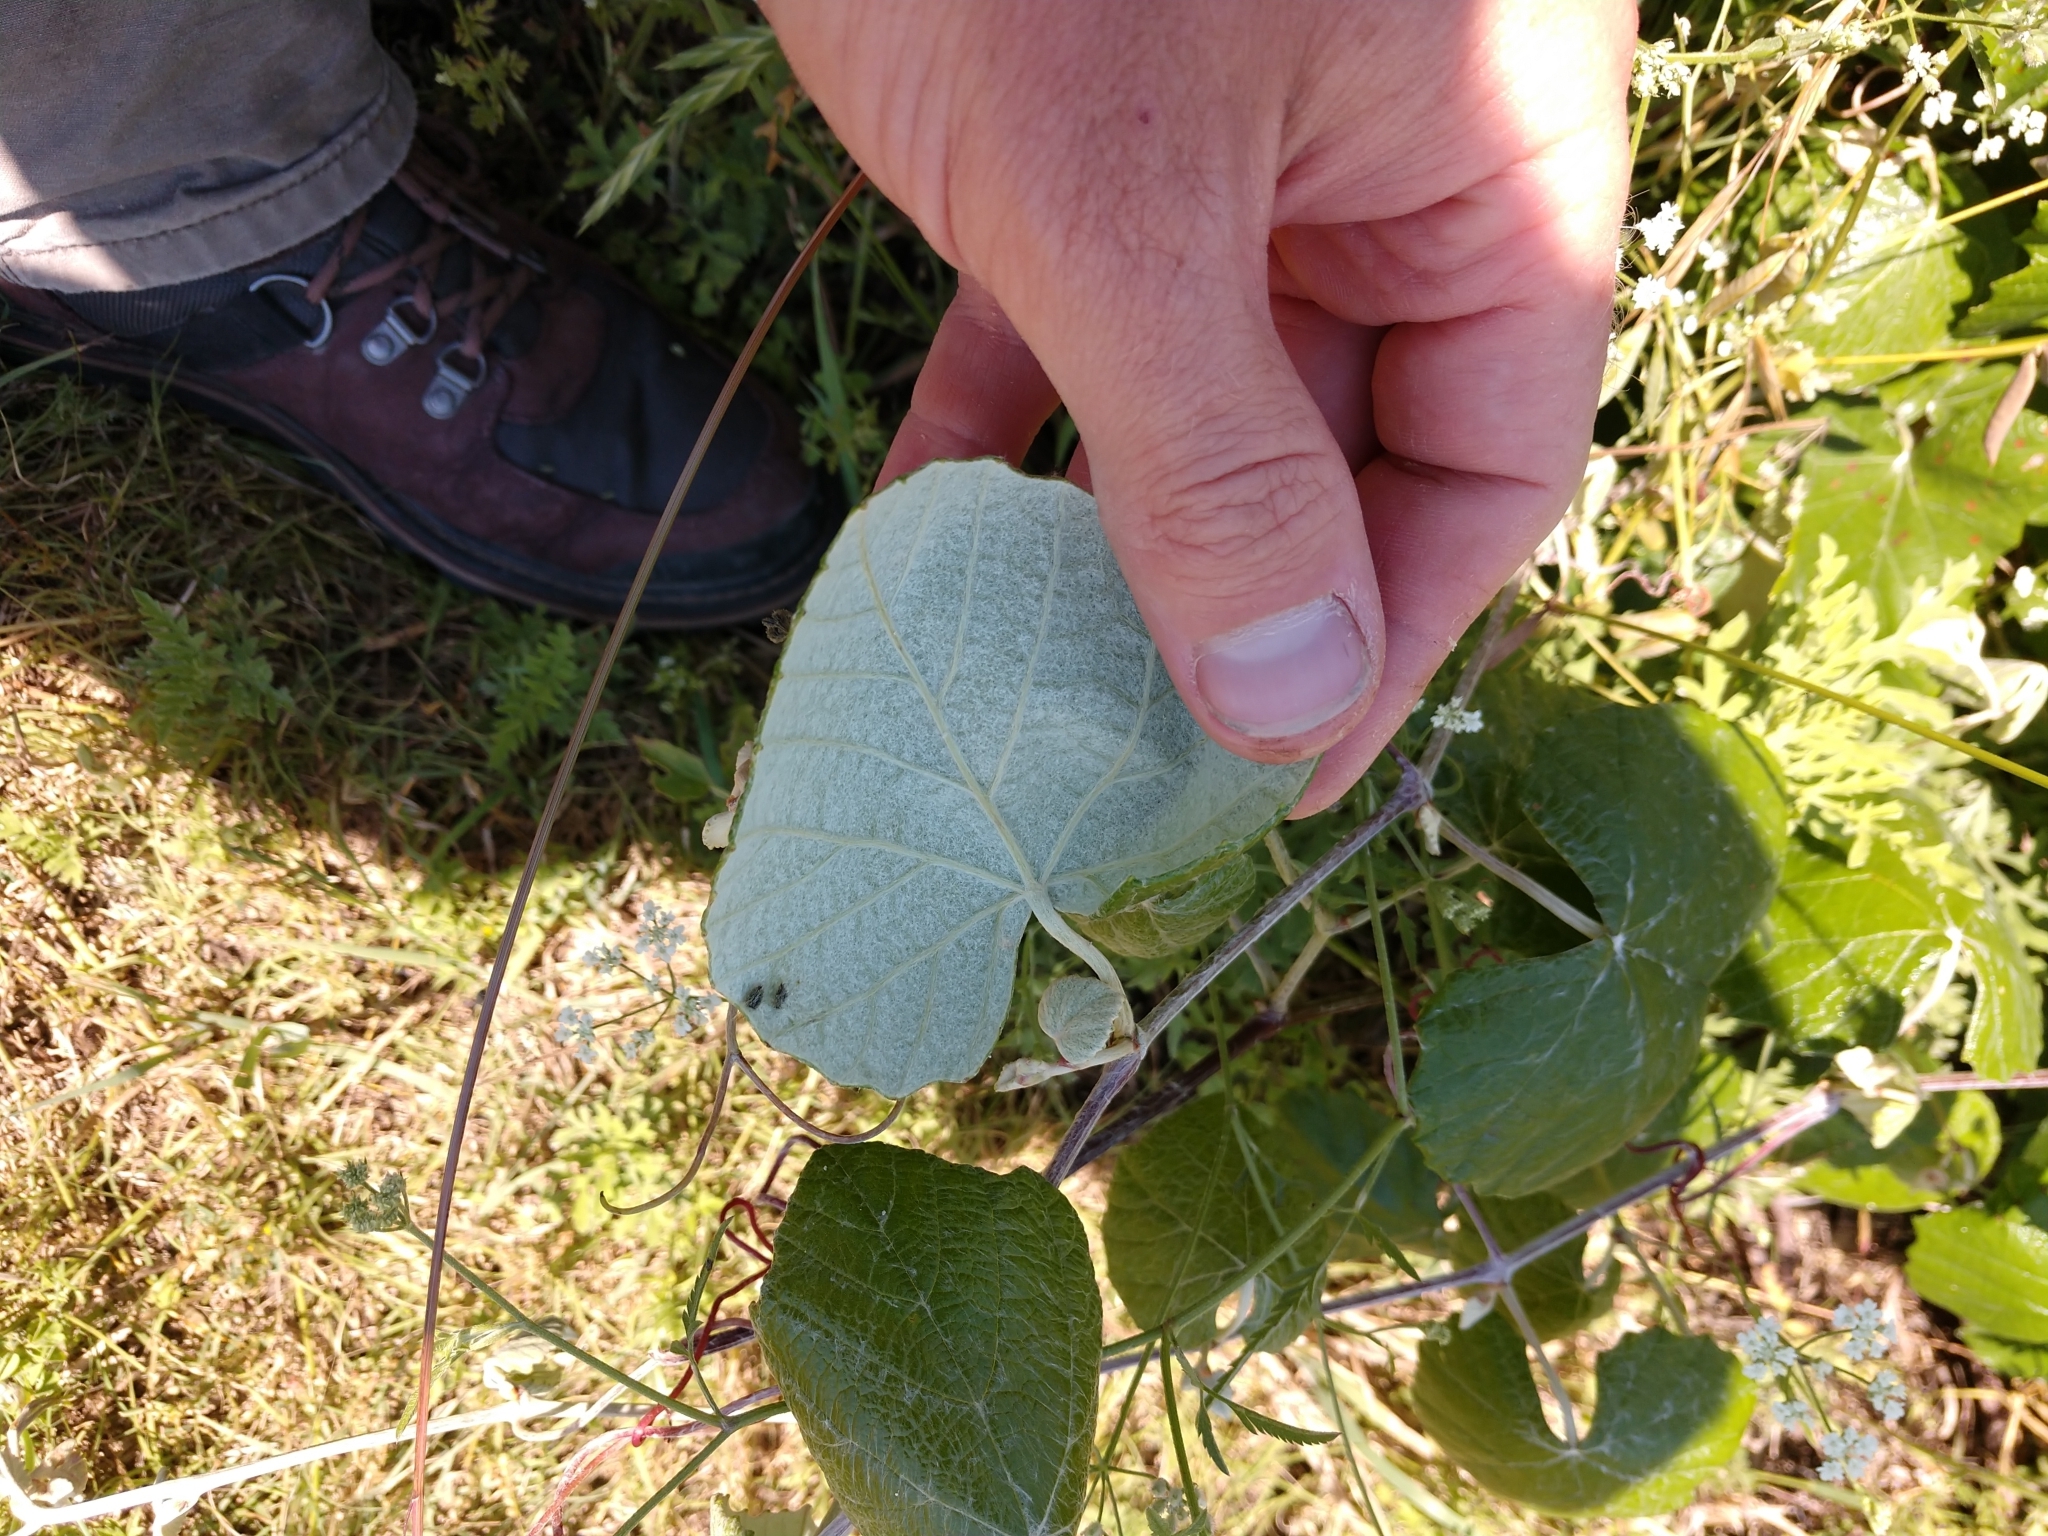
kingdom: Plantae
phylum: Tracheophyta
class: Magnoliopsida
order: Vitales
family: Vitaceae
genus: Vitis
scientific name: Vitis mustangensis
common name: Mustang grape
